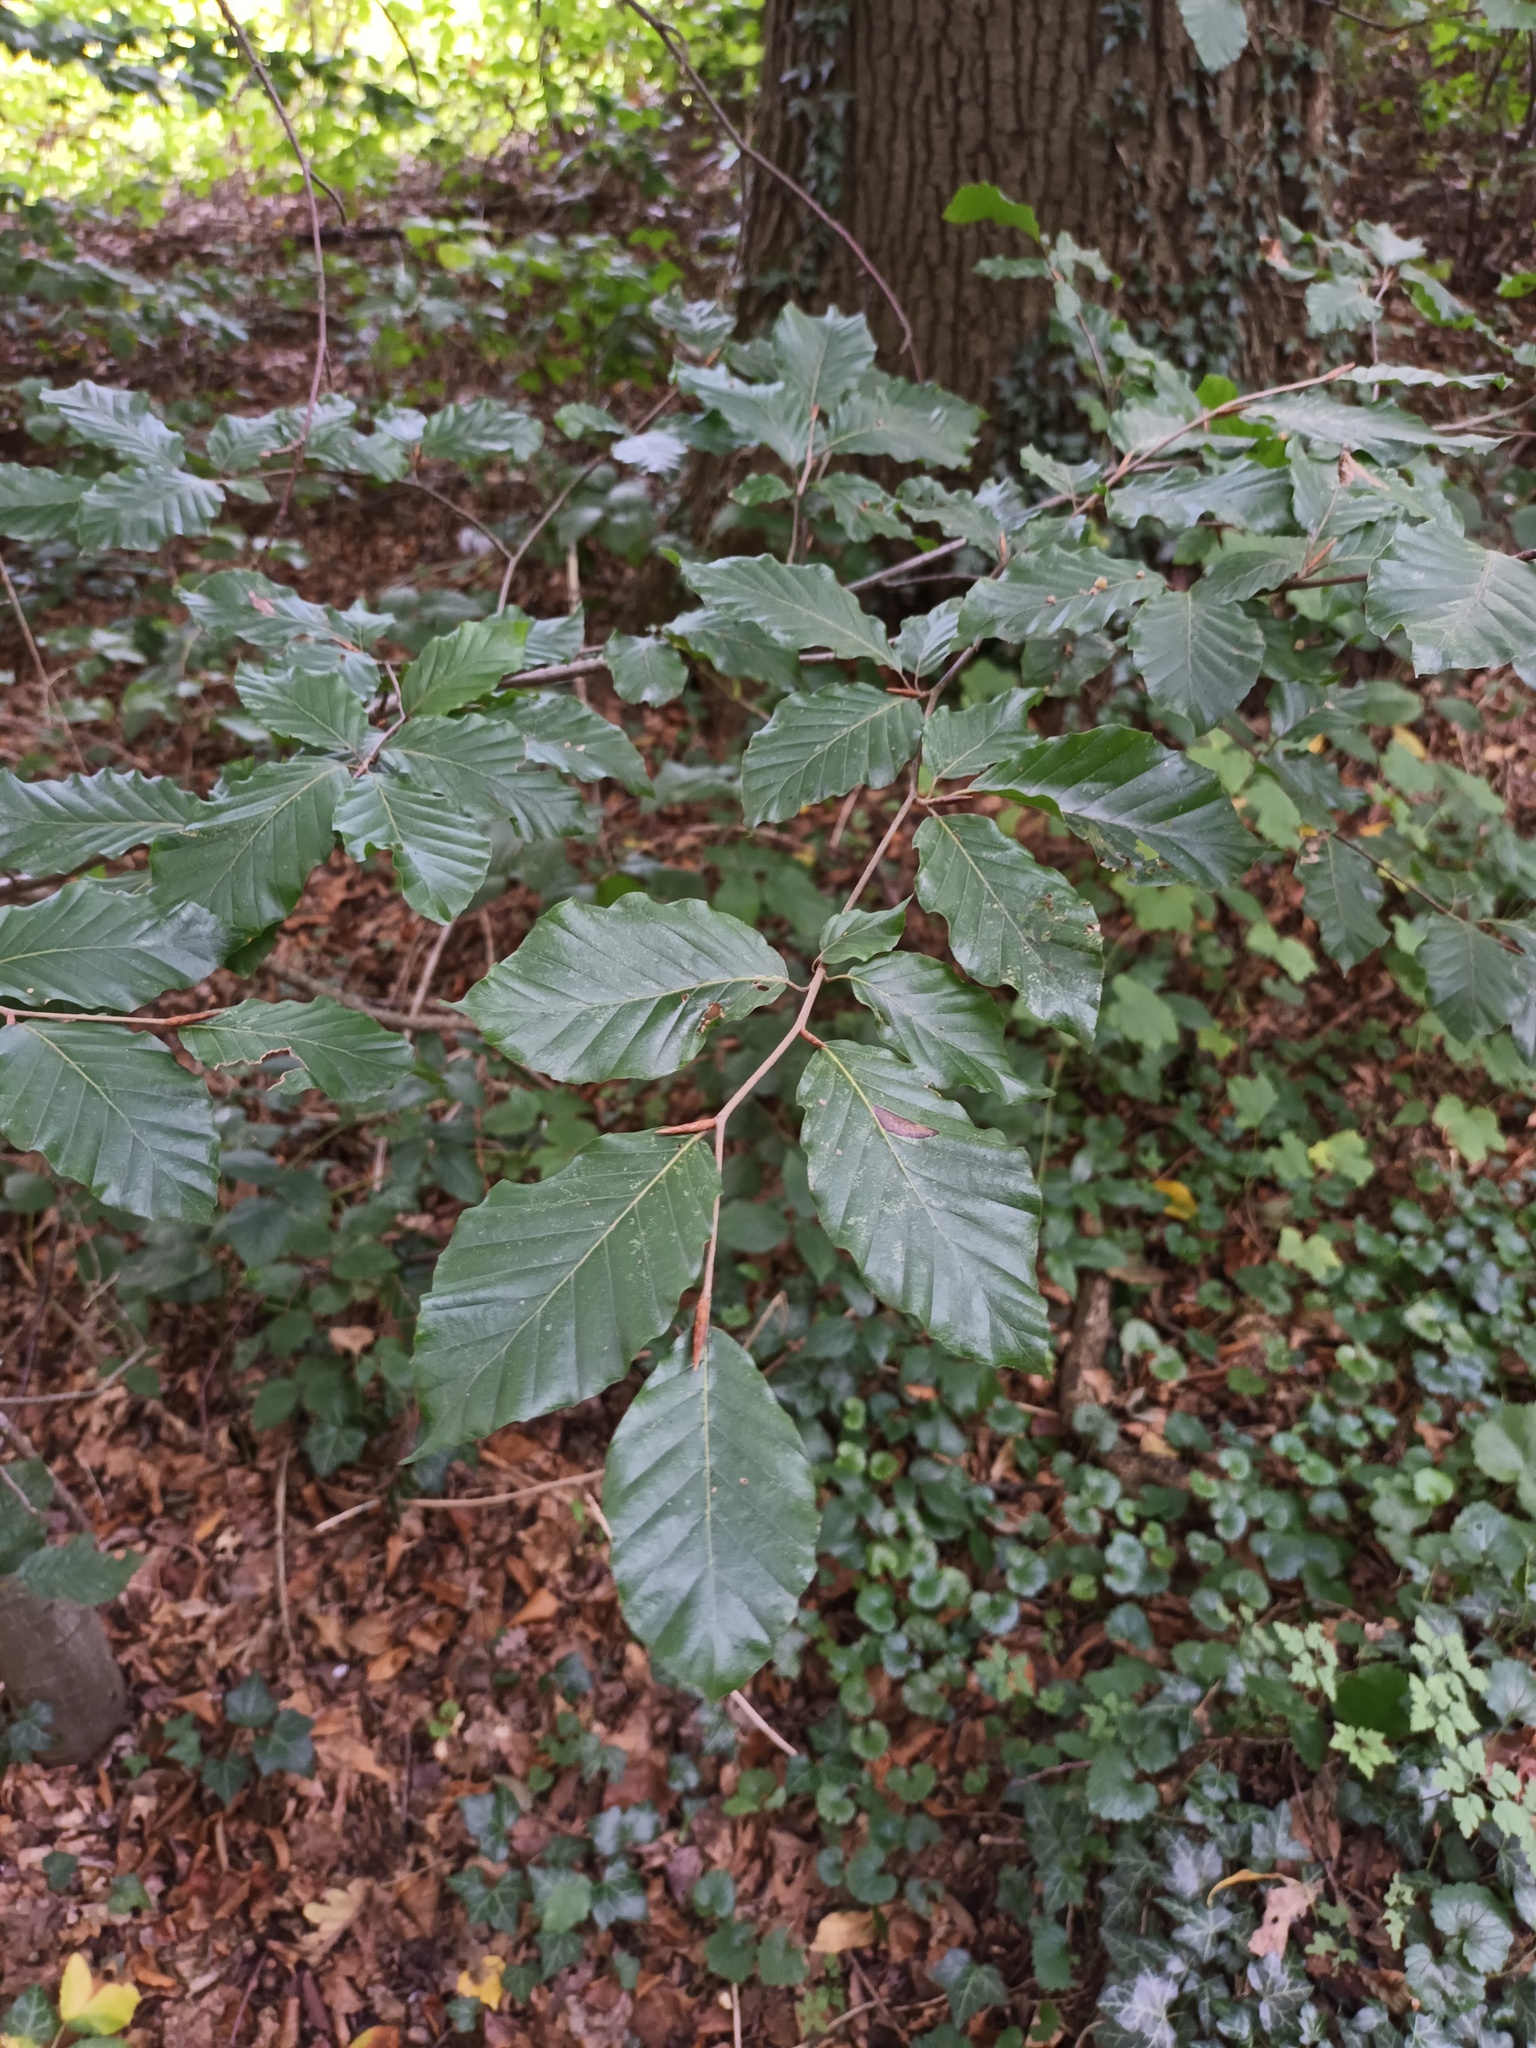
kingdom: Plantae
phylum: Tracheophyta
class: Magnoliopsida
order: Fagales
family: Fagaceae
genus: Fagus
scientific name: Fagus sylvatica
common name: Beech
